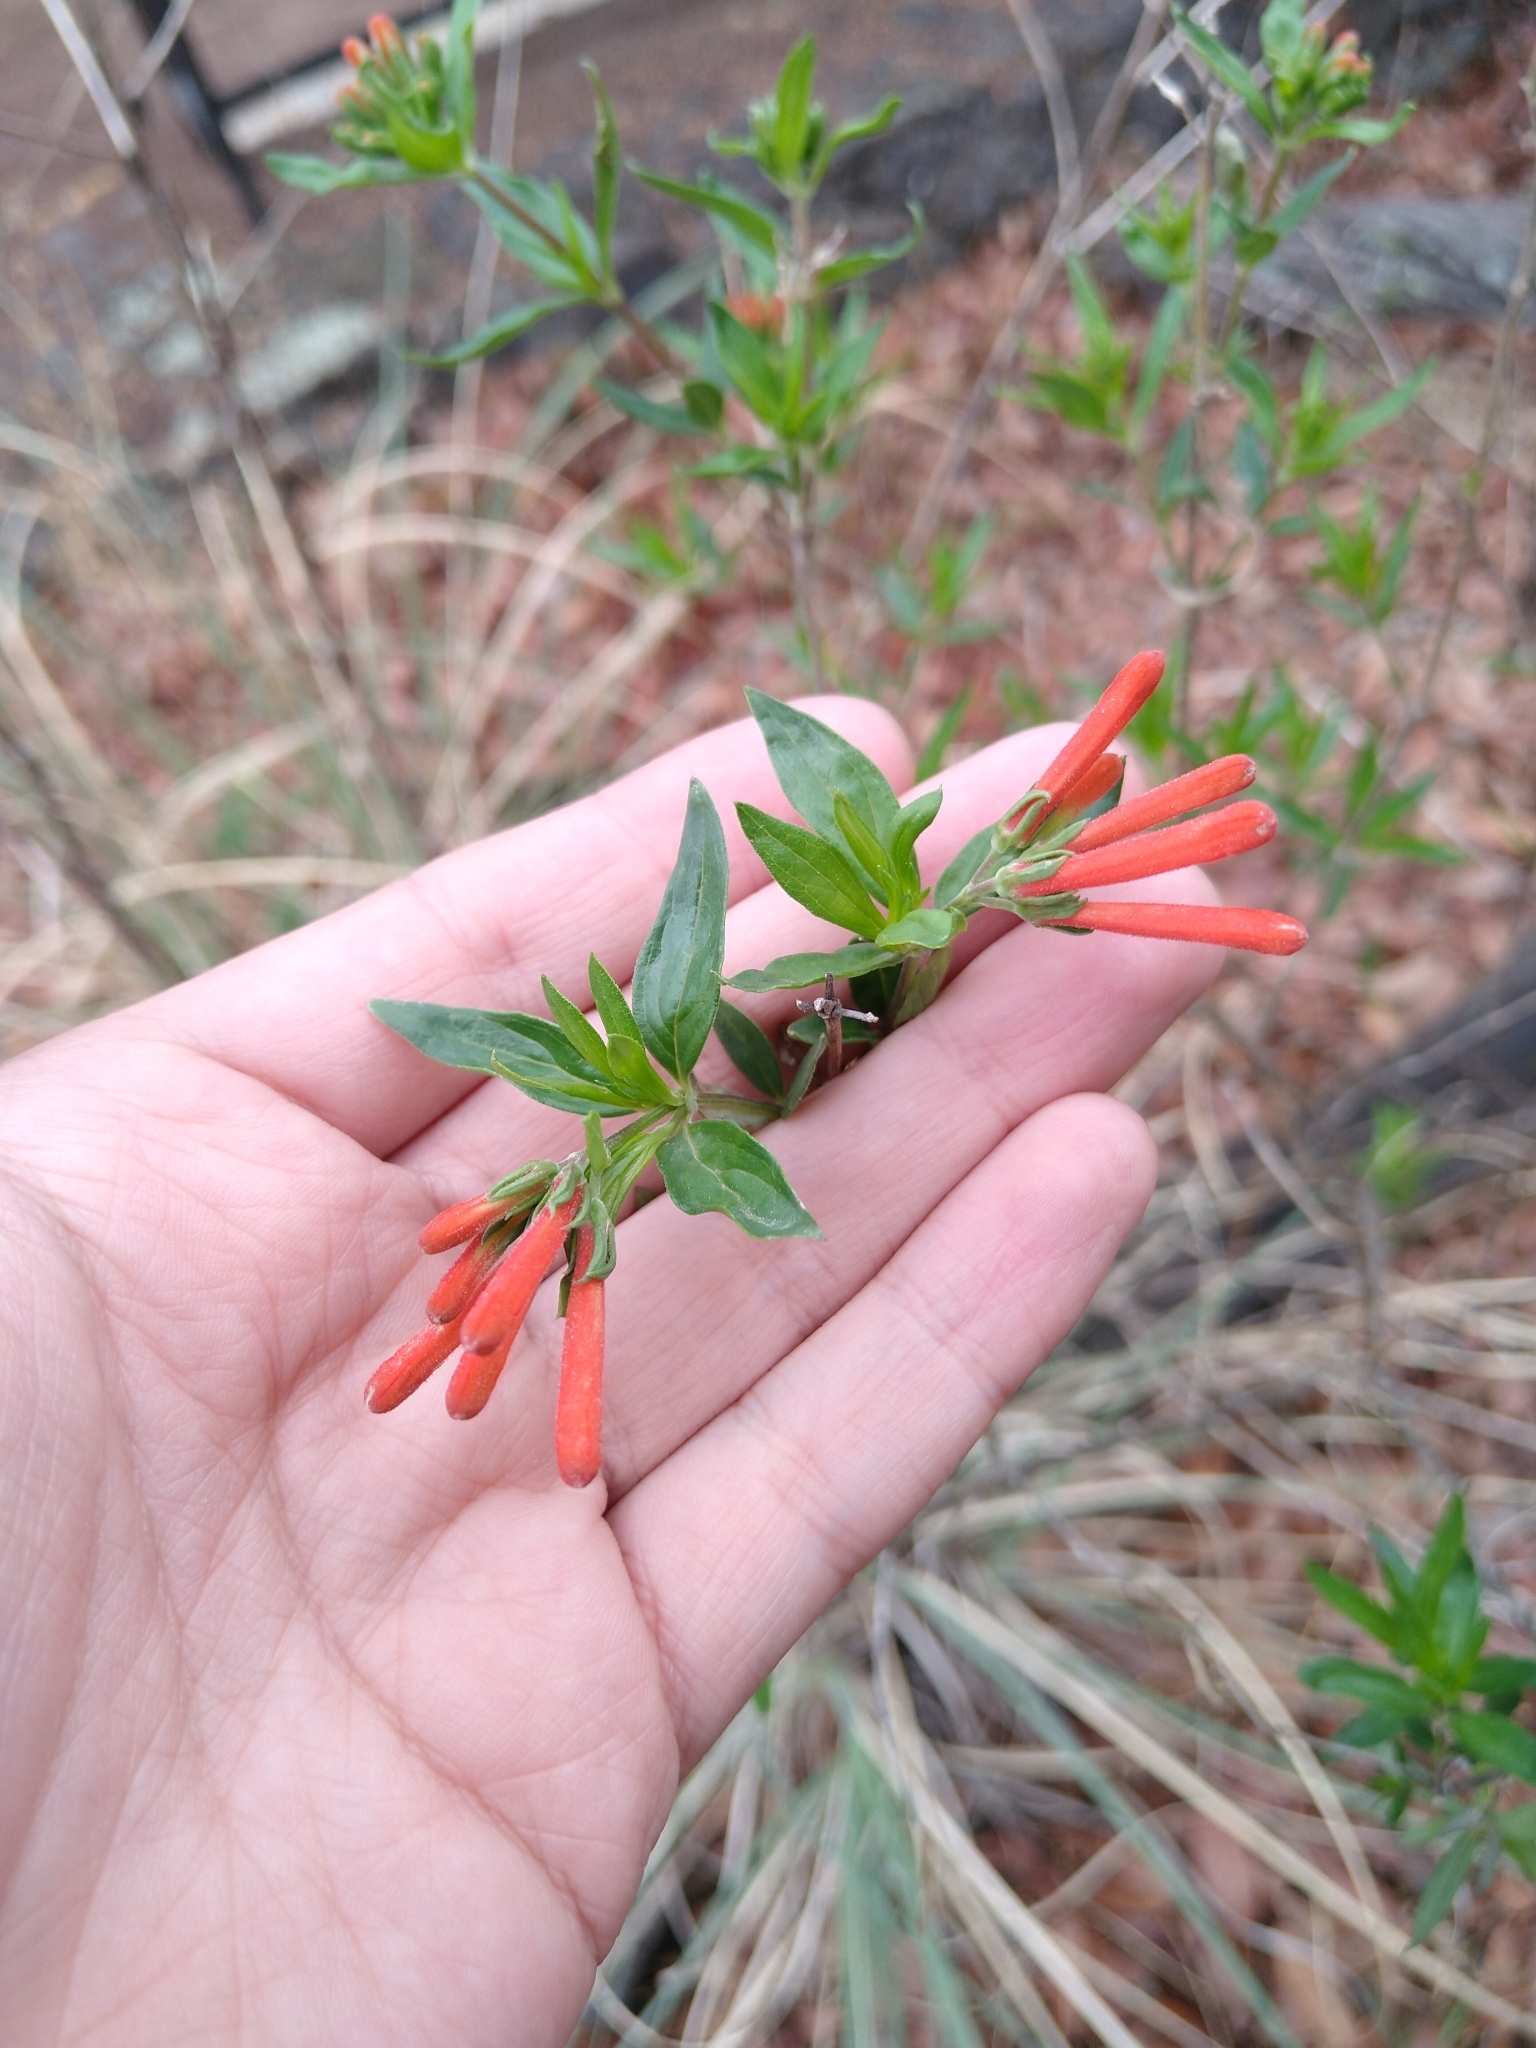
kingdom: Plantae
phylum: Tracheophyta
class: Magnoliopsida
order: Gentianales
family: Rubiaceae
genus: Bouvardia
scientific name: Bouvardia ternifolia
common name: Scarlet bouvardia
